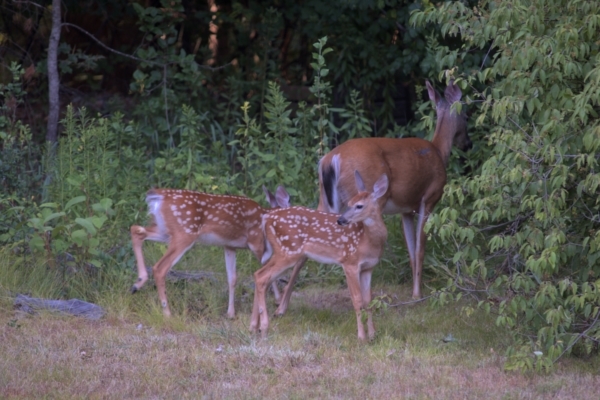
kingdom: Animalia
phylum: Chordata
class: Mammalia
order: Artiodactyla
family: Cervidae
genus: Odocoileus
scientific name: Odocoileus virginianus
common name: White-tailed deer
